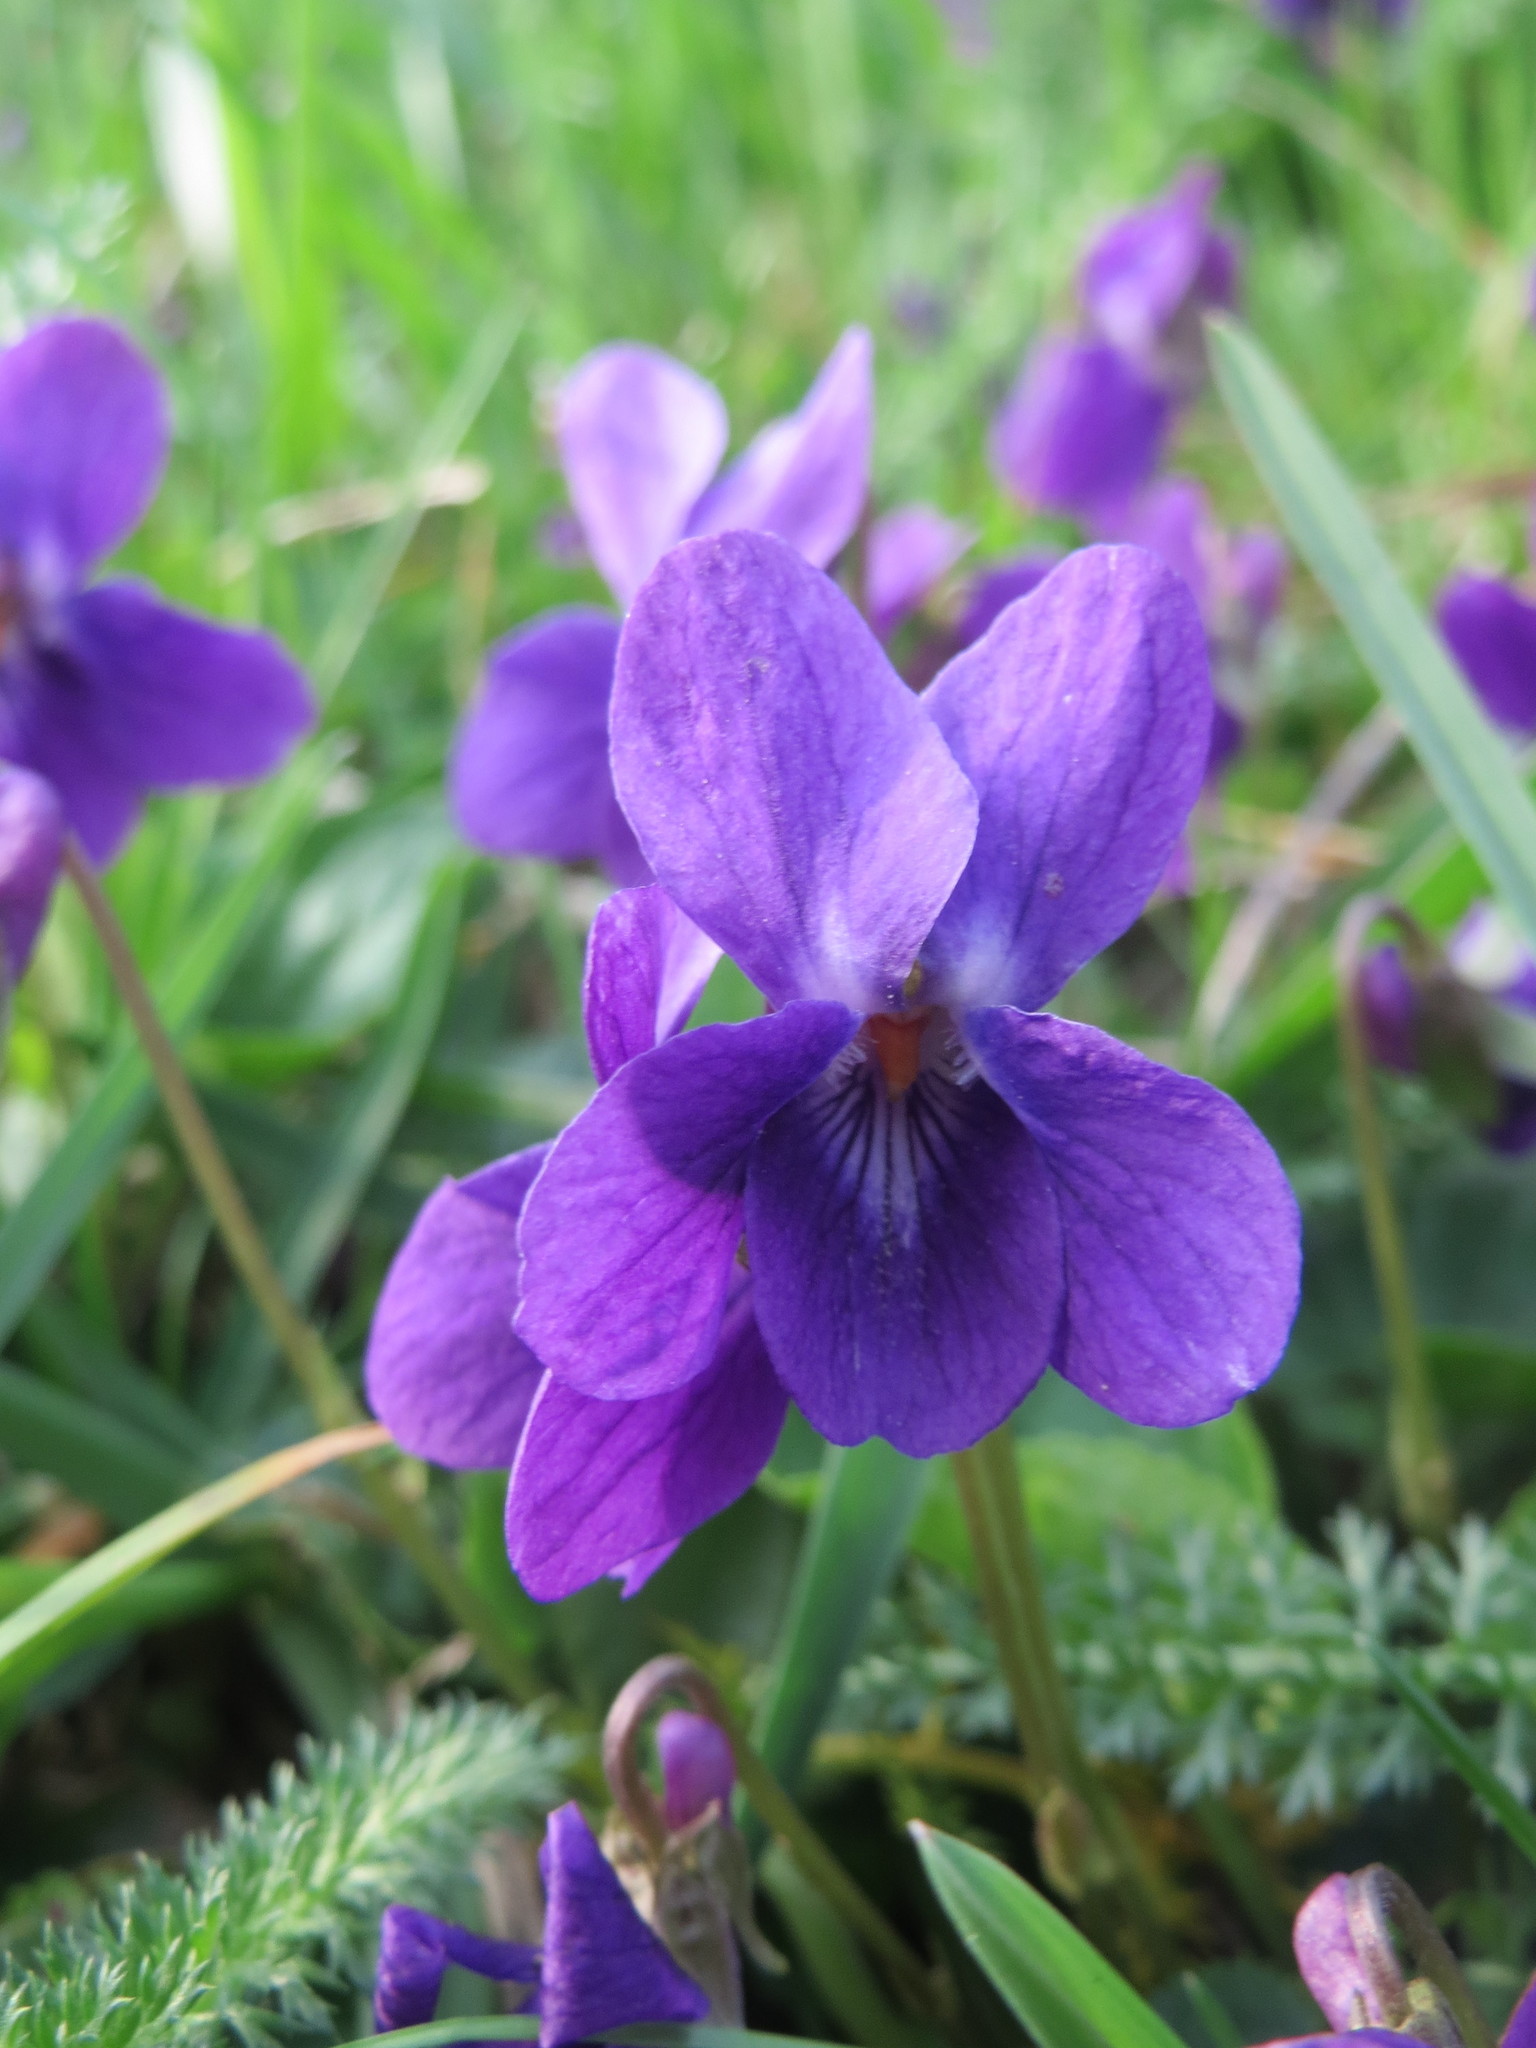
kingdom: Plantae
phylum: Tracheophyta
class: Magnoliopsida
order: Malpighiales
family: Violaceae
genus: Viola
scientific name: Viola odorata
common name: Sweet violet
